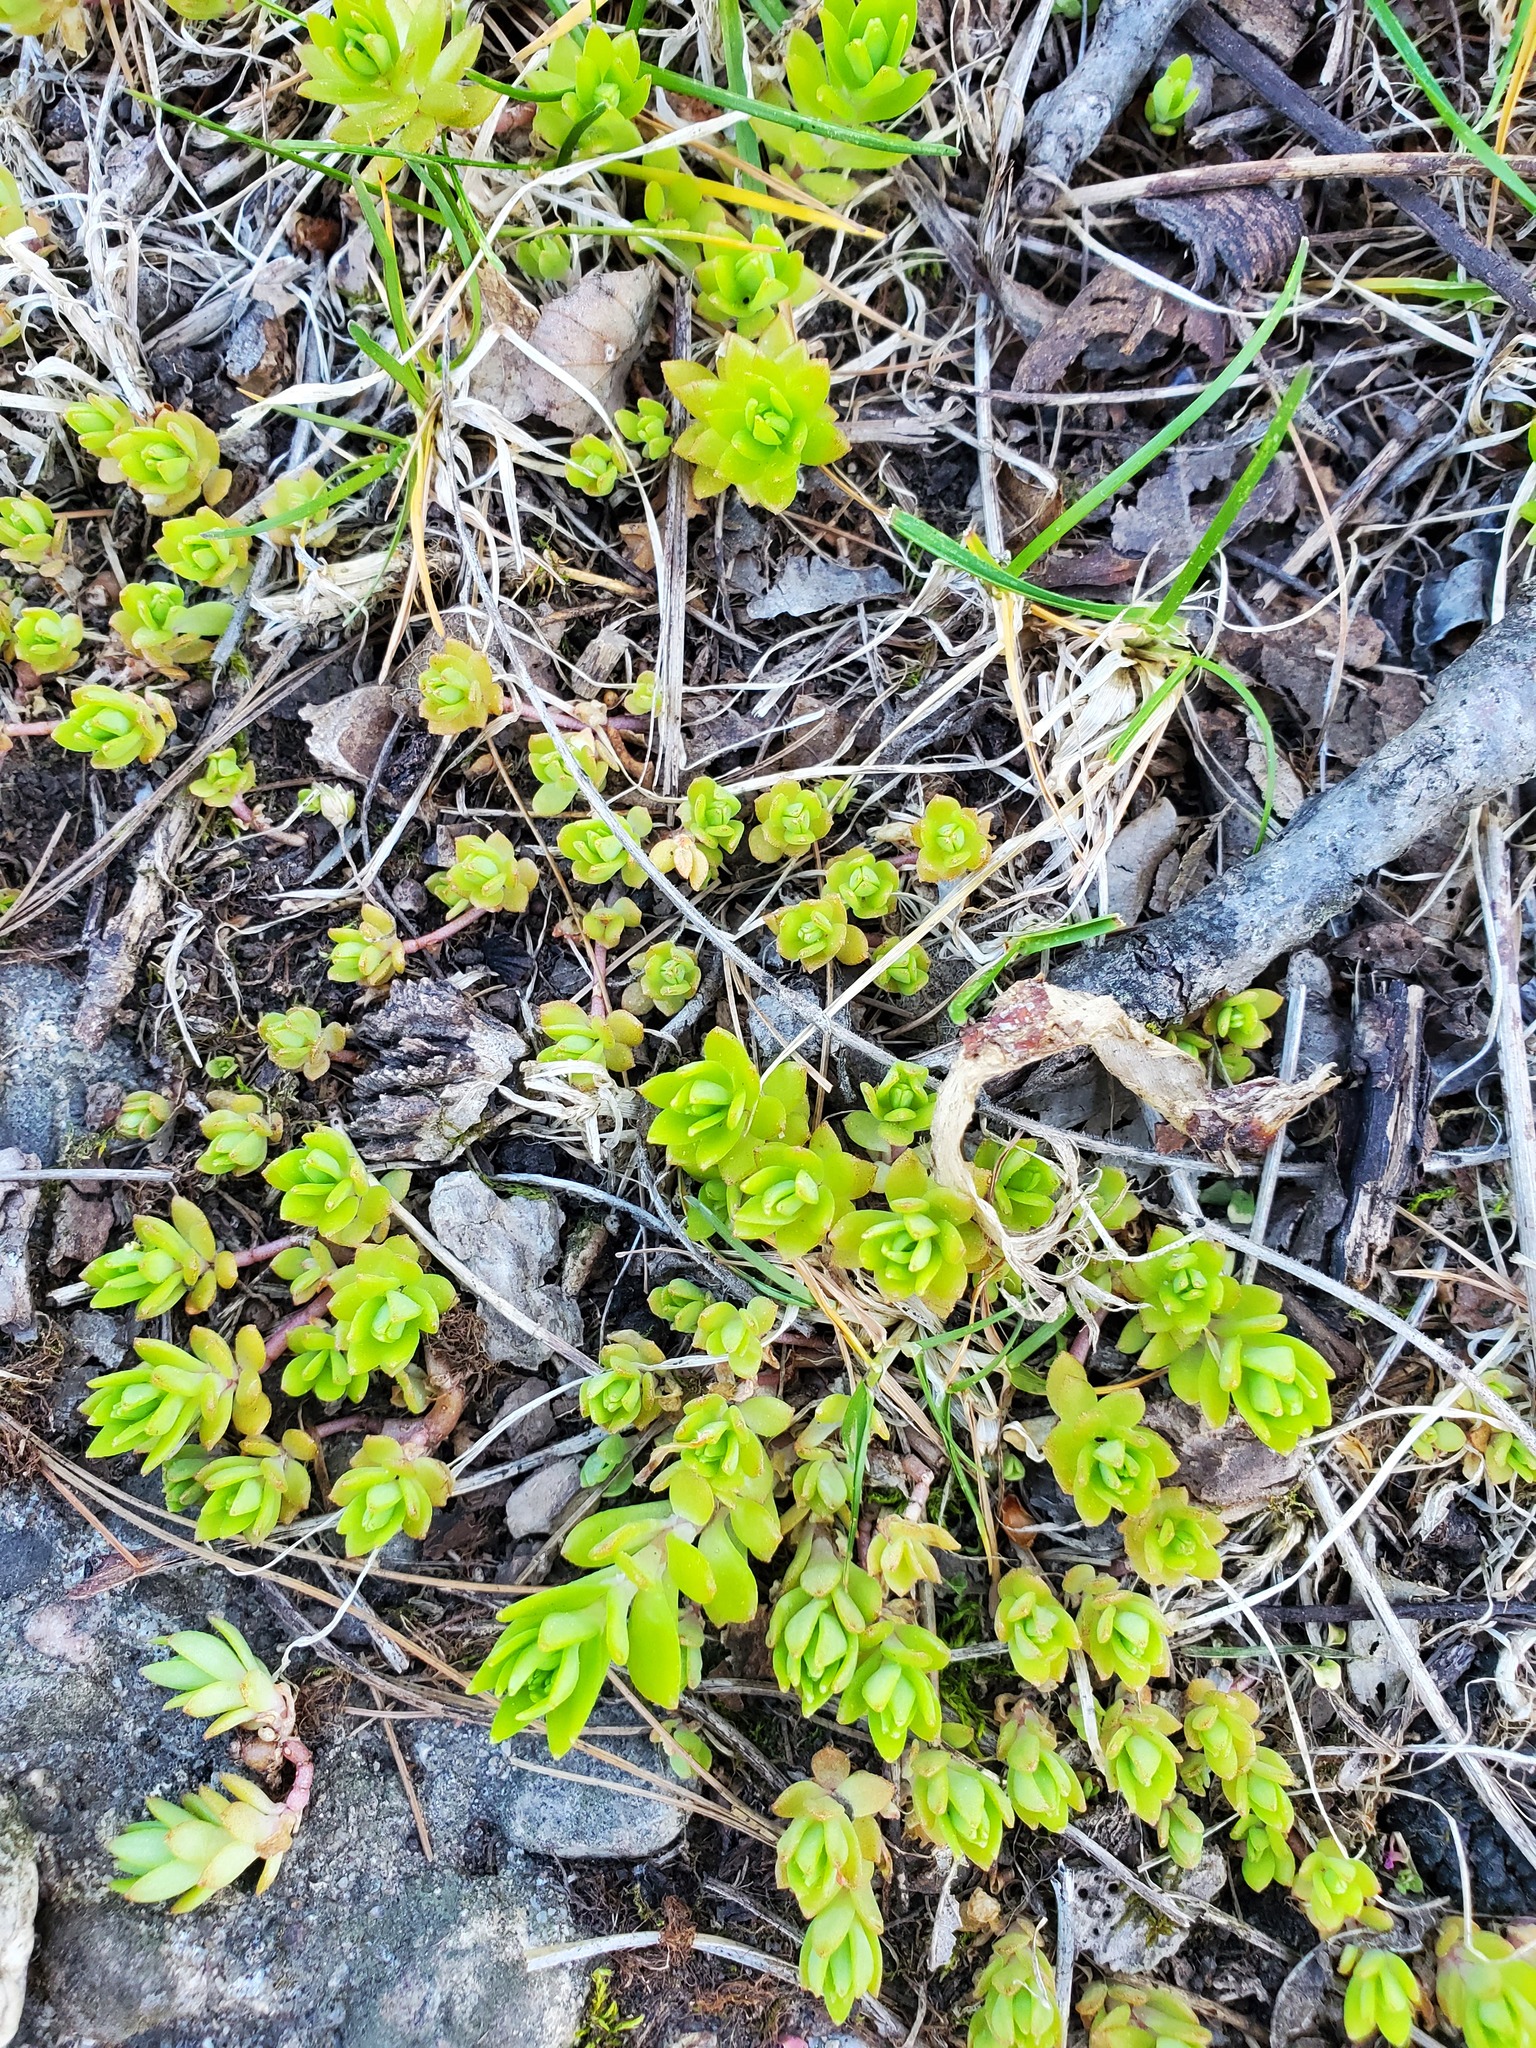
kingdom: Plantae
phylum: Tracheophyta
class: Magnoliopsida
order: Saxifragales
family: Crassulaceae
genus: Sedum
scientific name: Sedum sarmentosum
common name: Stringy stonecrop
